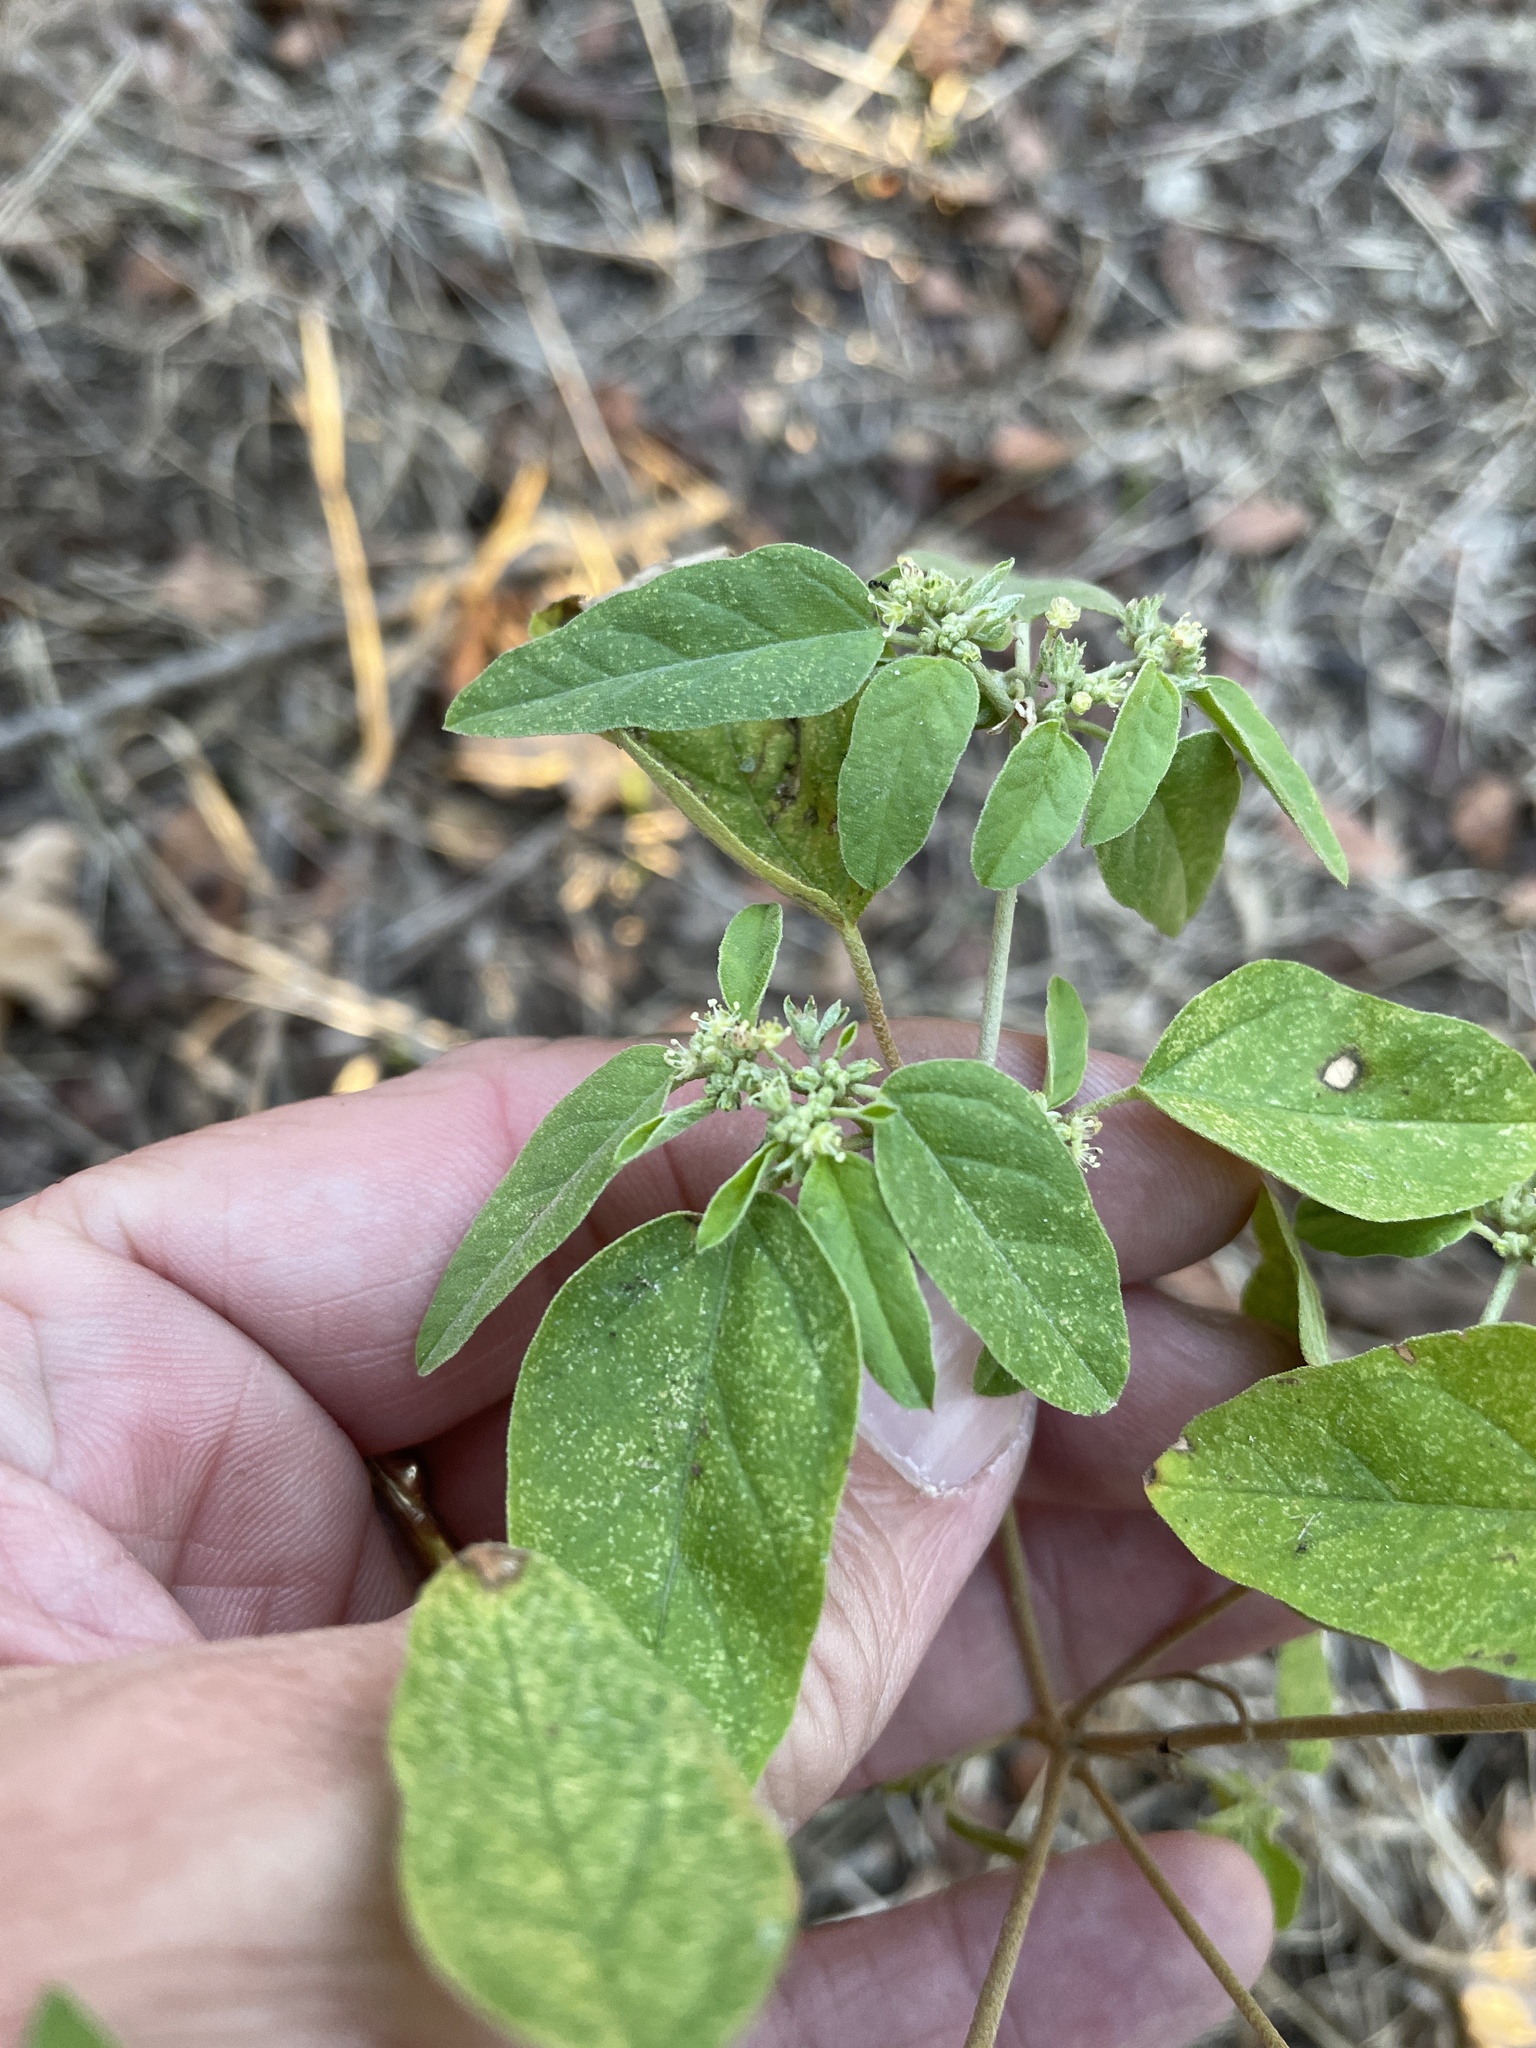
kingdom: Plantae
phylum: Tracheophyta
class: Magnoliopsida
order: Malpighiales
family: Euphorbiaceae
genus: Croton
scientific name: Croton monanthogynus
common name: One-seed croton
